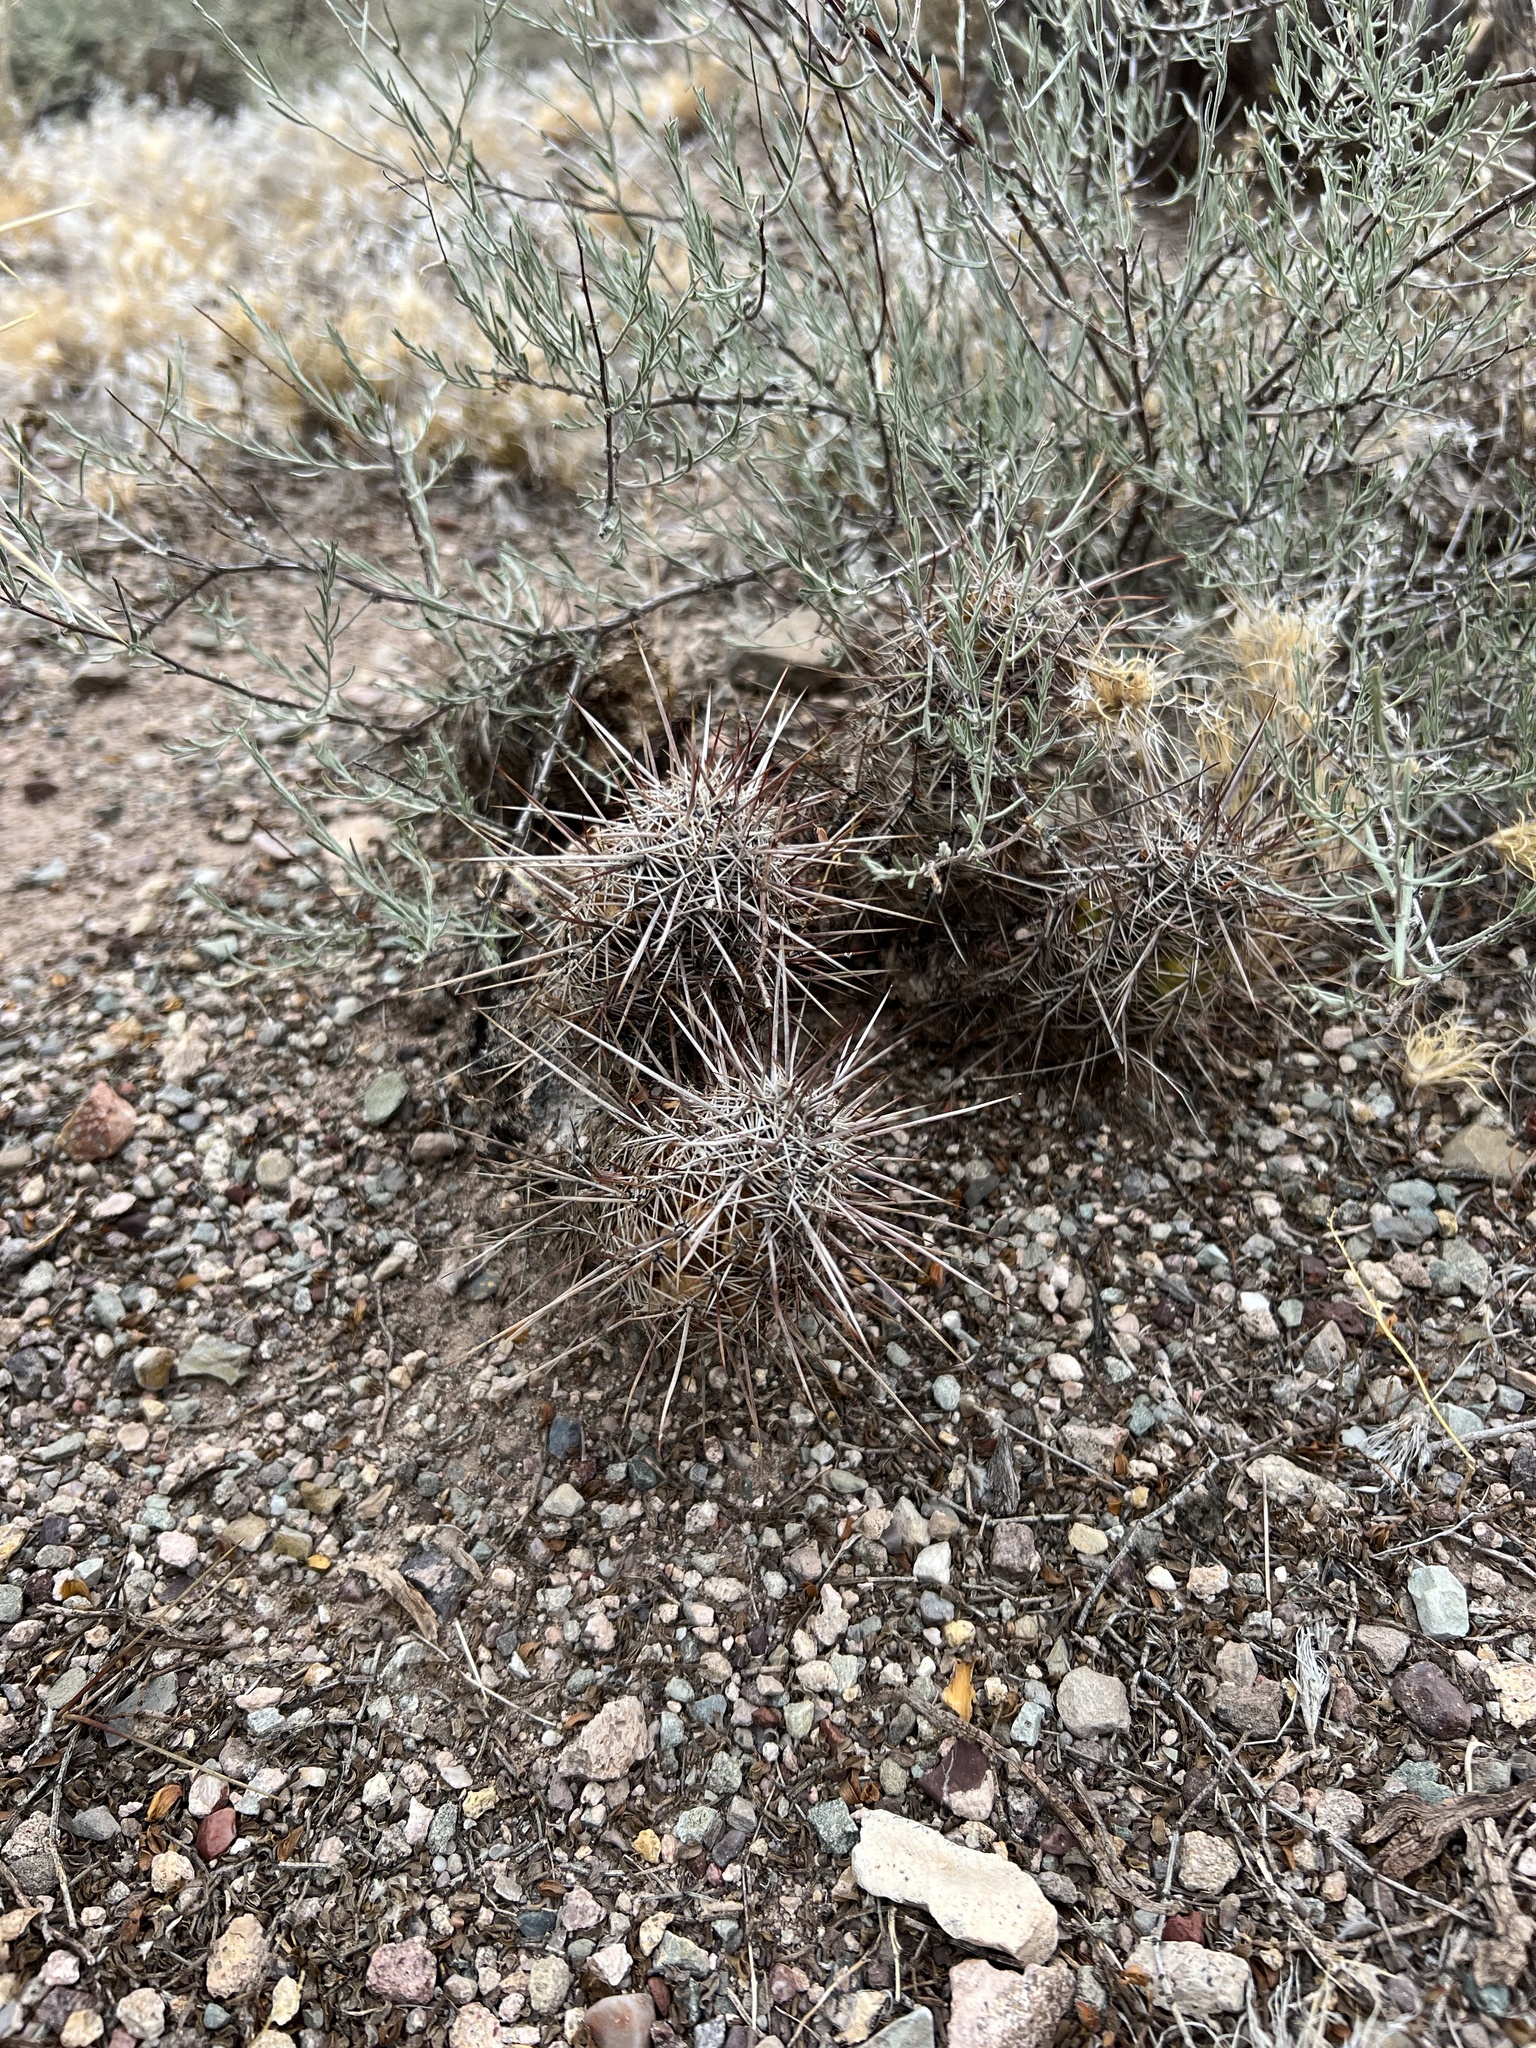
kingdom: Plantae
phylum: Tracheophyta
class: Magnoliopsida
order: Caryophyllales
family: Cactaceae
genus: Echinocereus
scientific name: Echinocereus fasciculatus
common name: Bundle hedgehog
